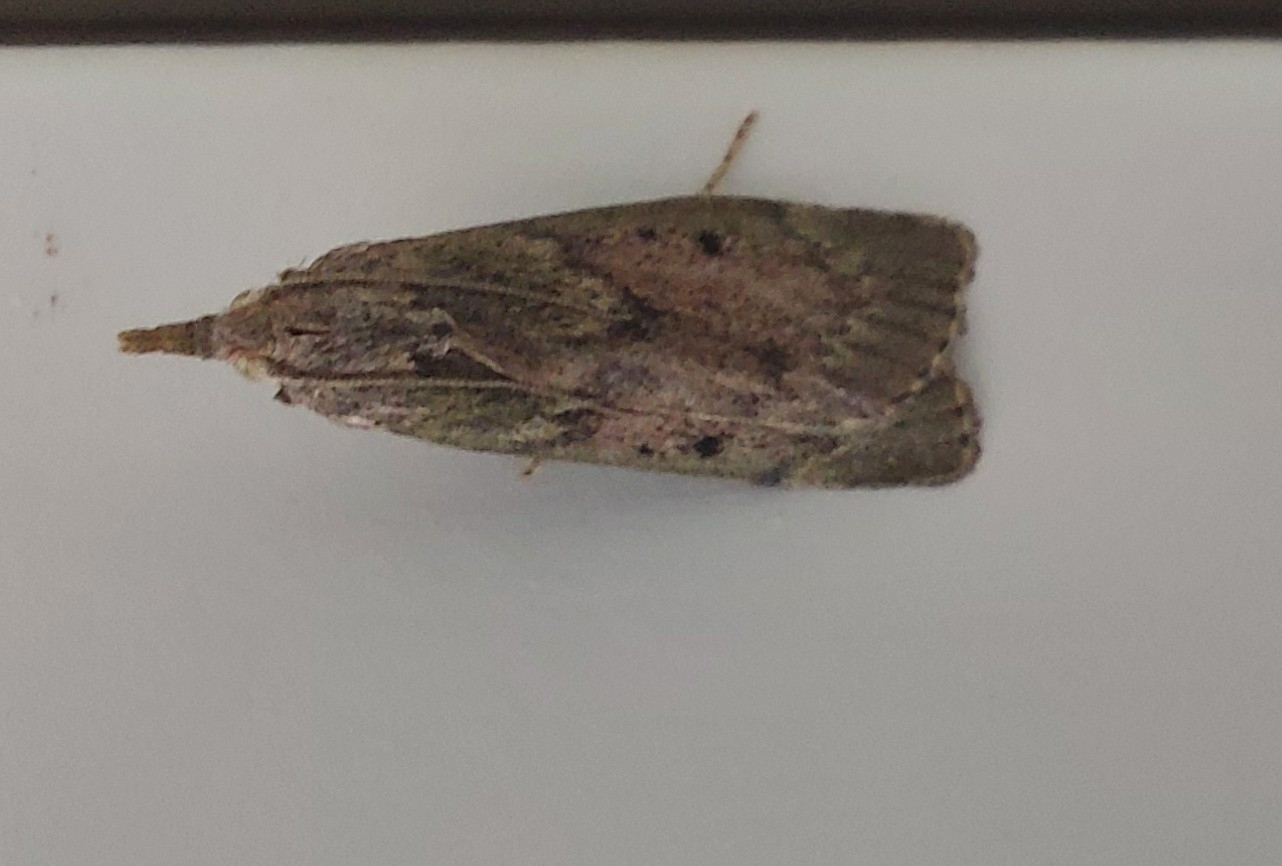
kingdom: Animalia
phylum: Arthropoda
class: Insecta
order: Lepidoptera
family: Pyralidae
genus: Aphomia
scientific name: Aphomia sociella
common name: Bee moth
